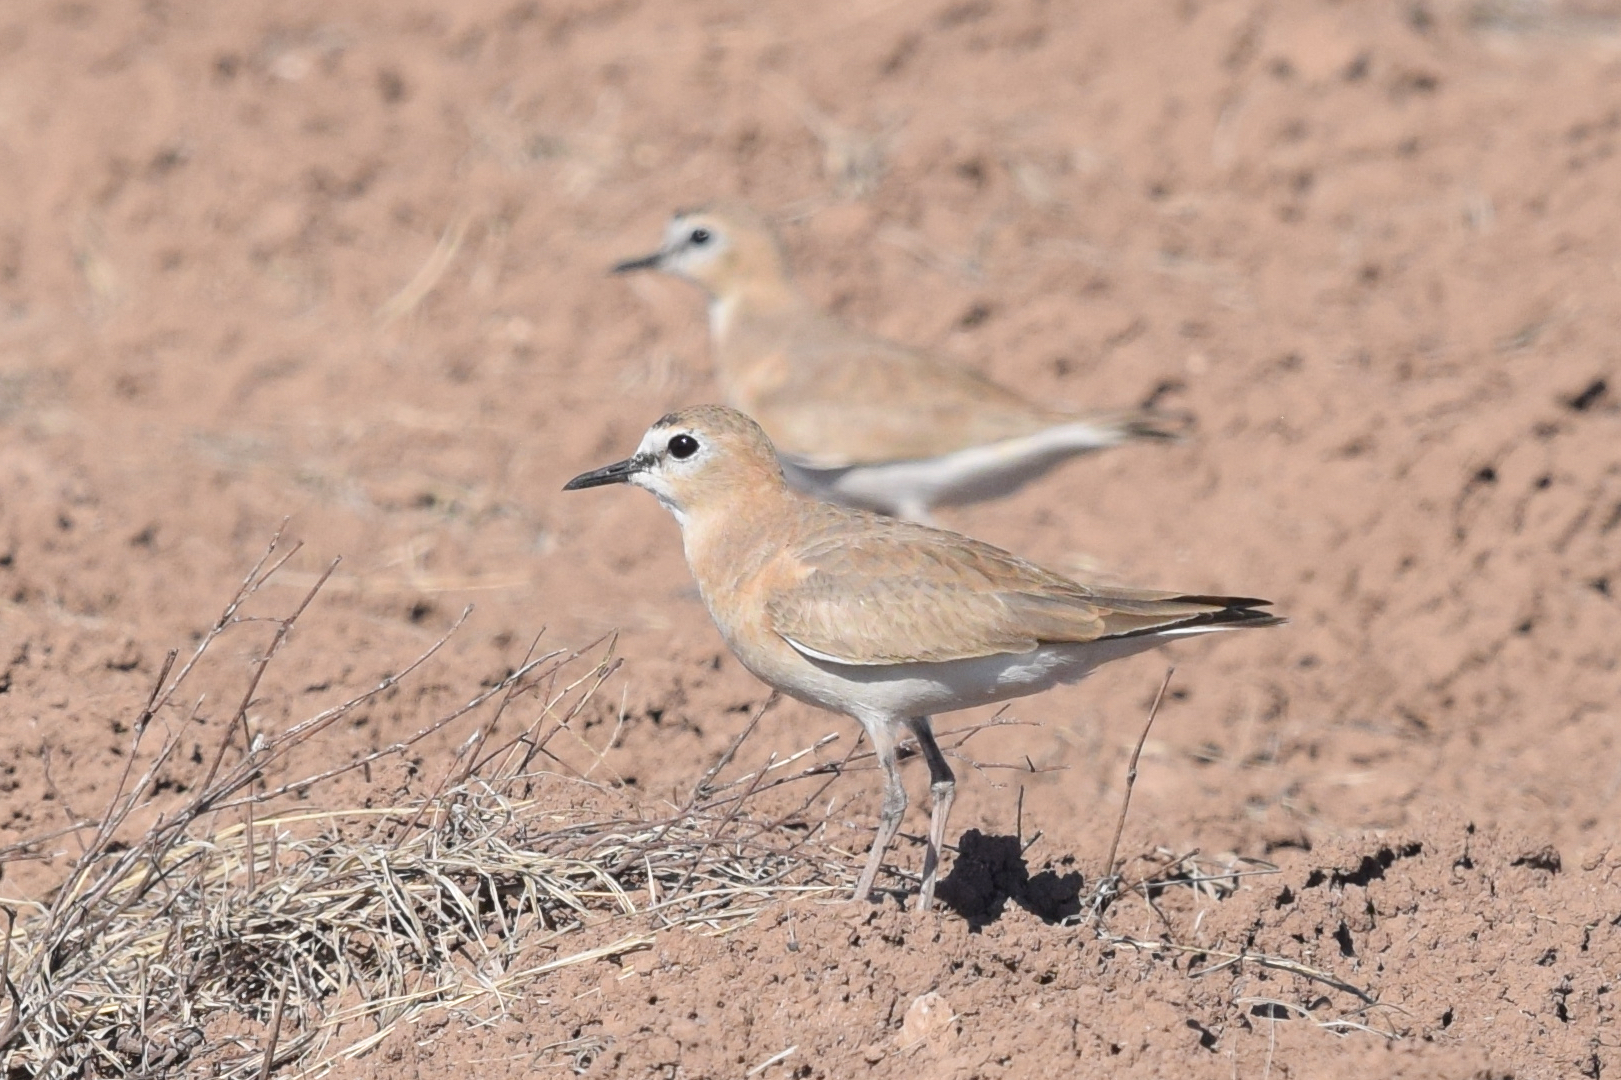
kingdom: Animalia
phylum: Chordata
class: Aves
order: Charadriiformes
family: Charadriidae
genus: Anarhynchus
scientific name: Anarhynchus
